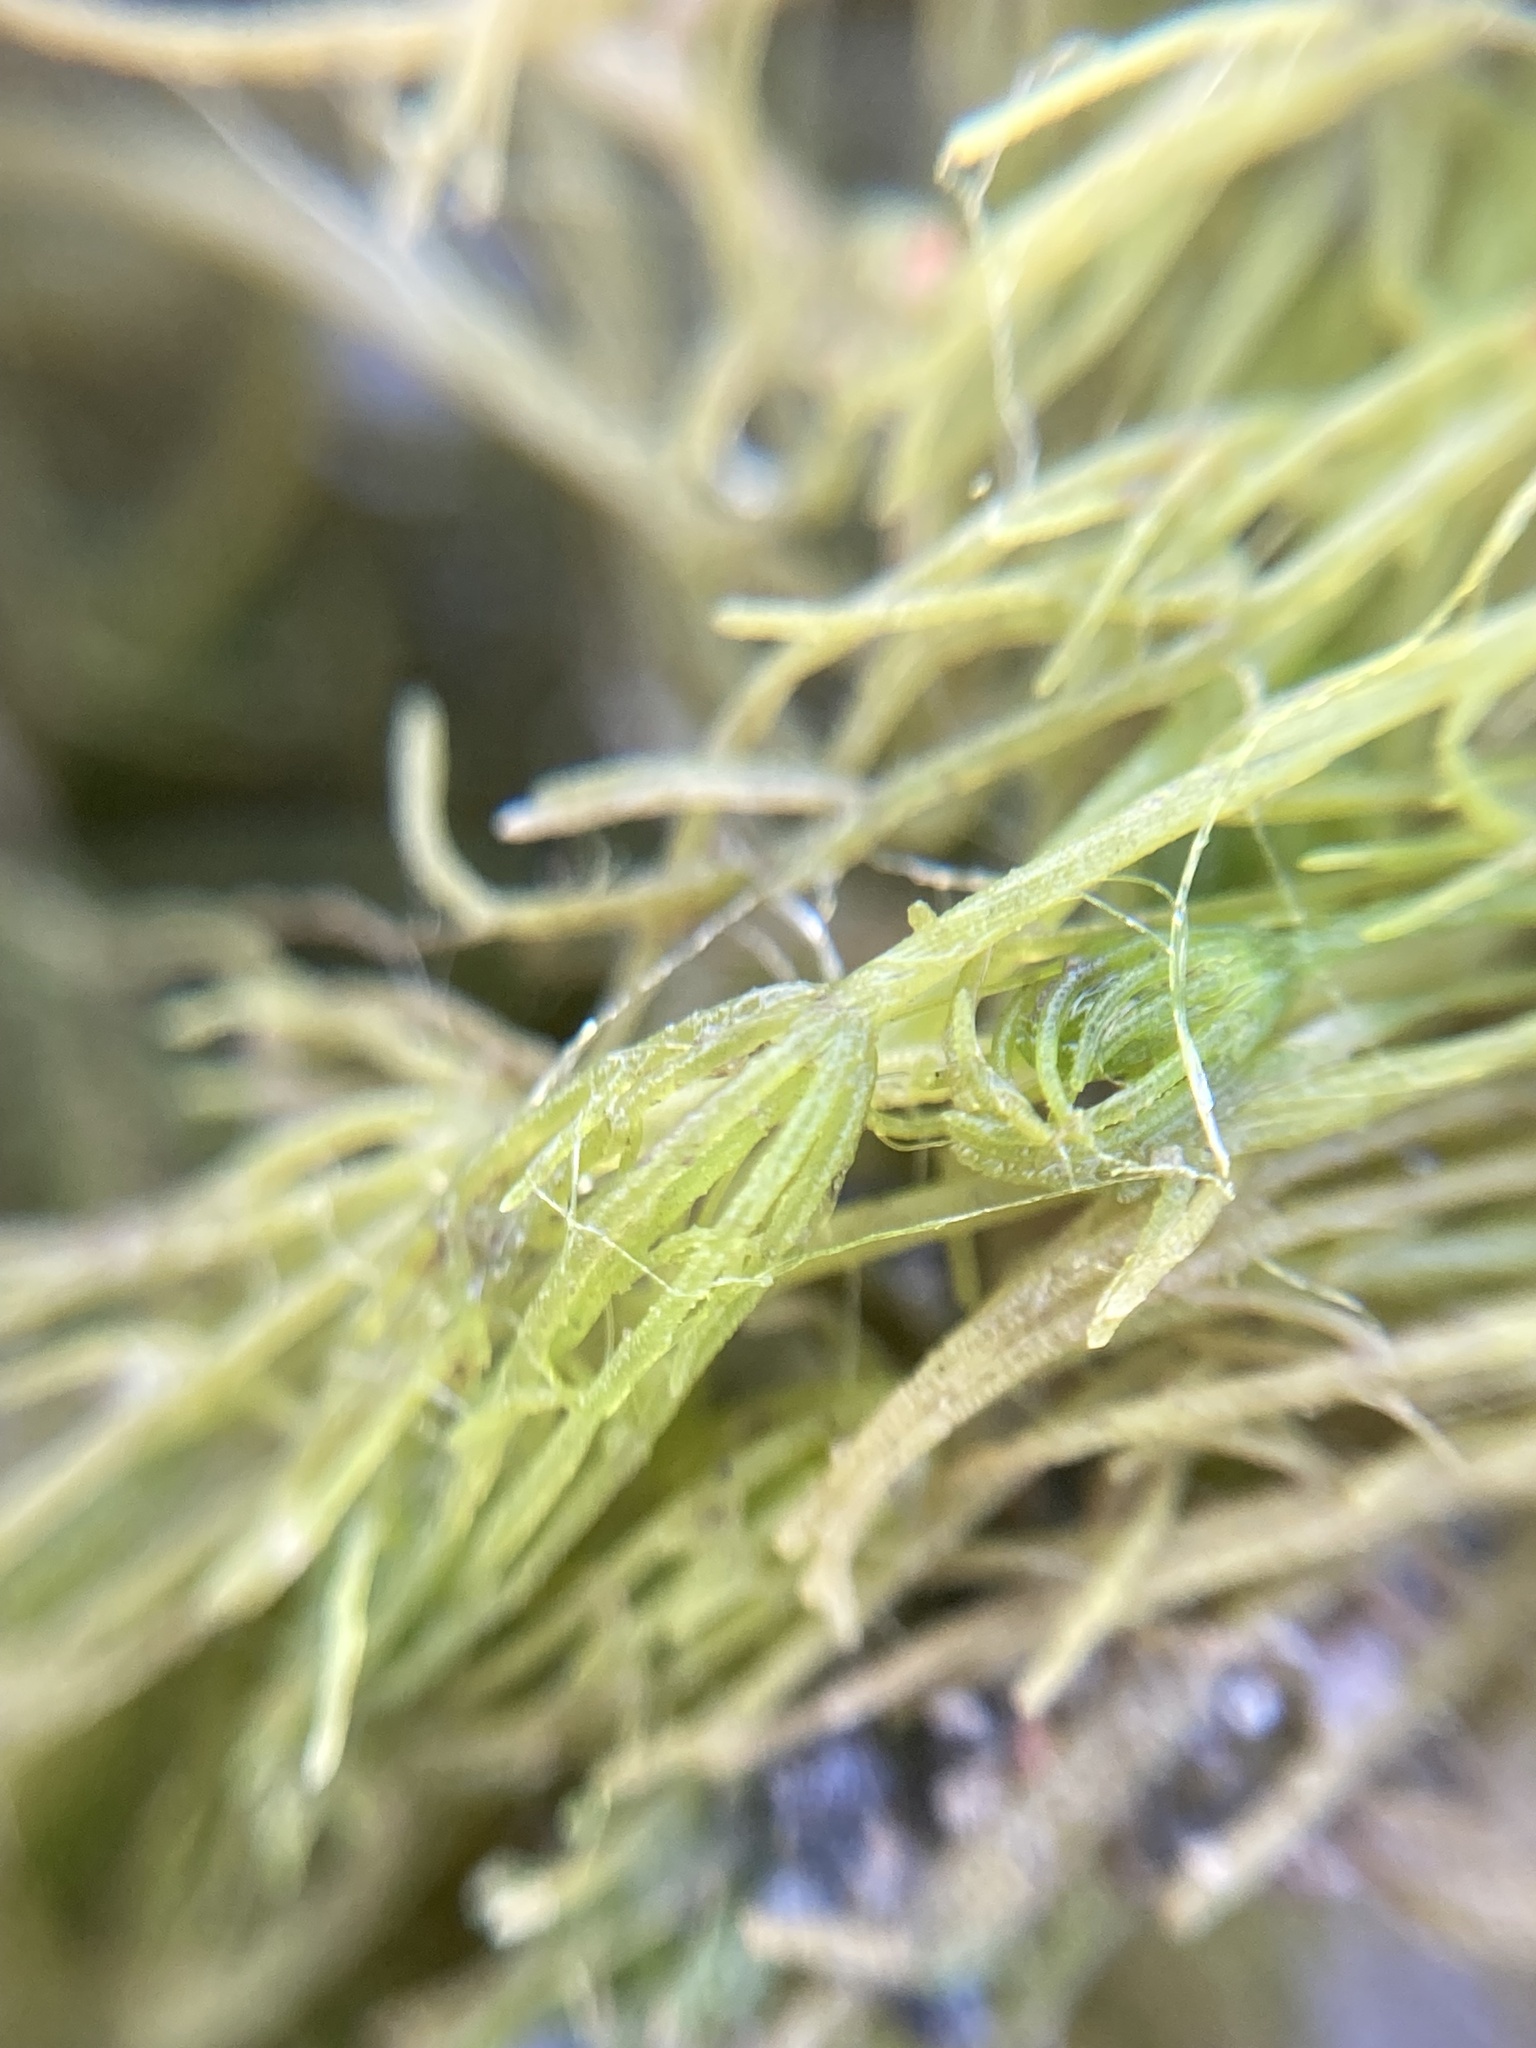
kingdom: Plantae
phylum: Charophyta
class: Charophyceae
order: Charales
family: Characeae
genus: Chara
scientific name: Chara vulgaris
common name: Common stonewort
